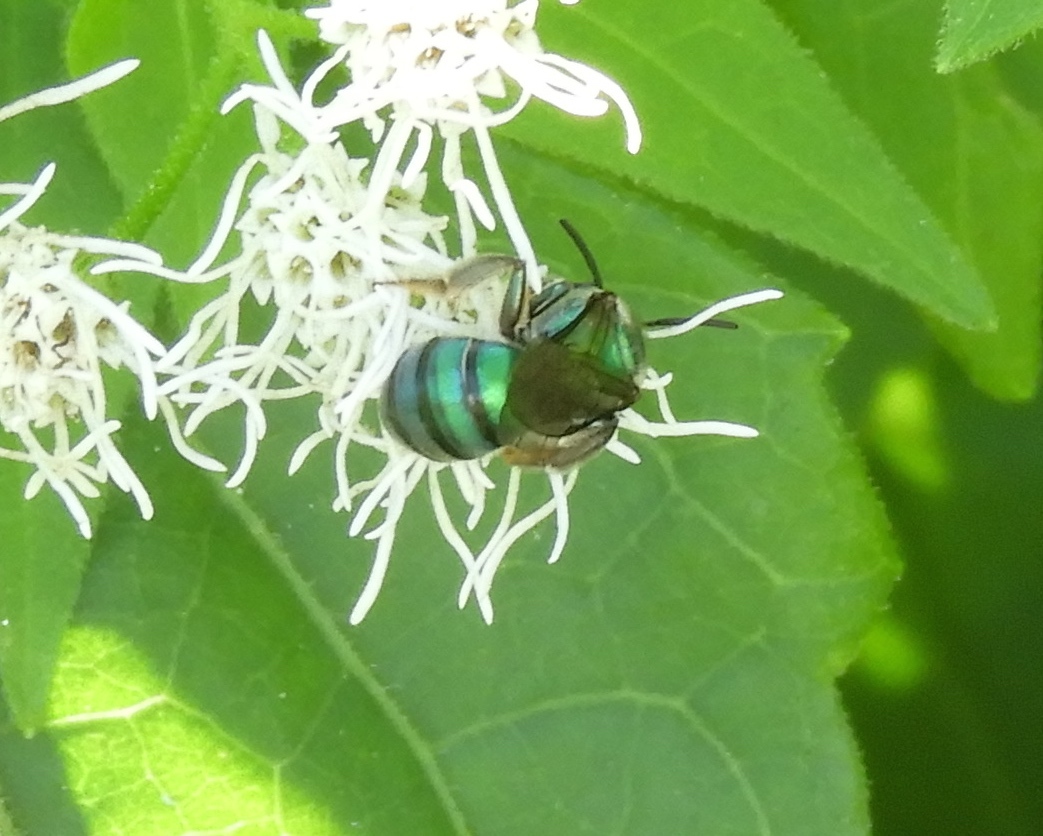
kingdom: Animalia
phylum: Arthropoda
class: Insecta
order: Hymenoptera
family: Halictidae
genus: Pseudaugochlora
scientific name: Pseudaugochlora graminea
